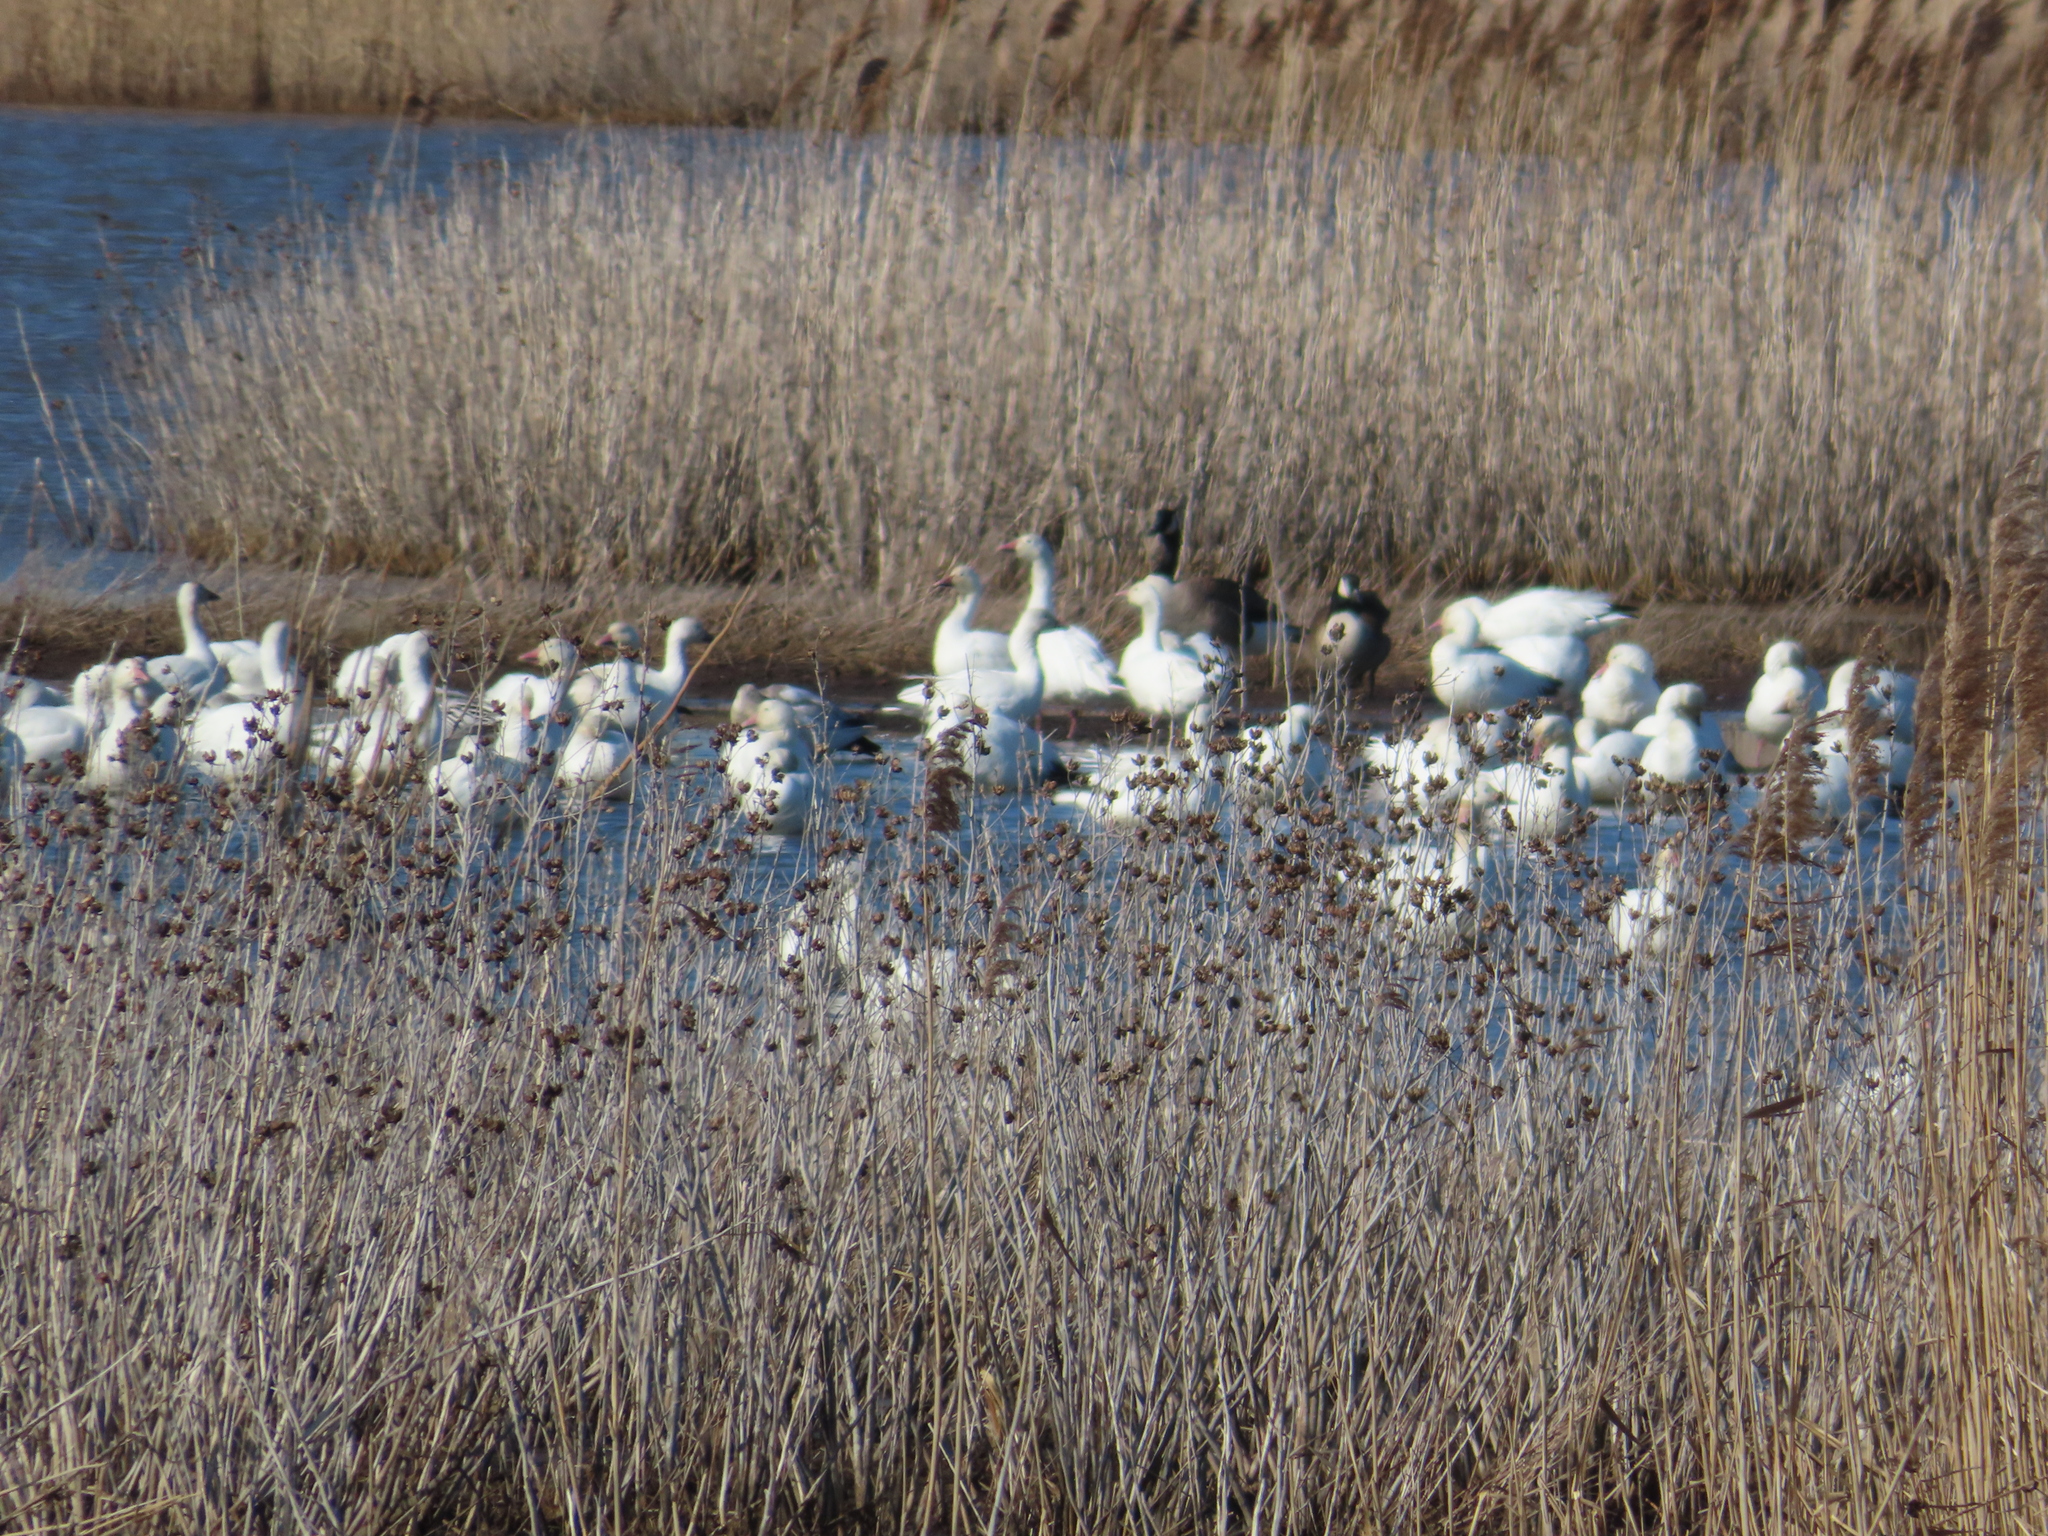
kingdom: Animalia
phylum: Chordata
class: Aves
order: Anseriformes
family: Anatidae
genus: Branta
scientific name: Branta canadensis
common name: Canada goose
